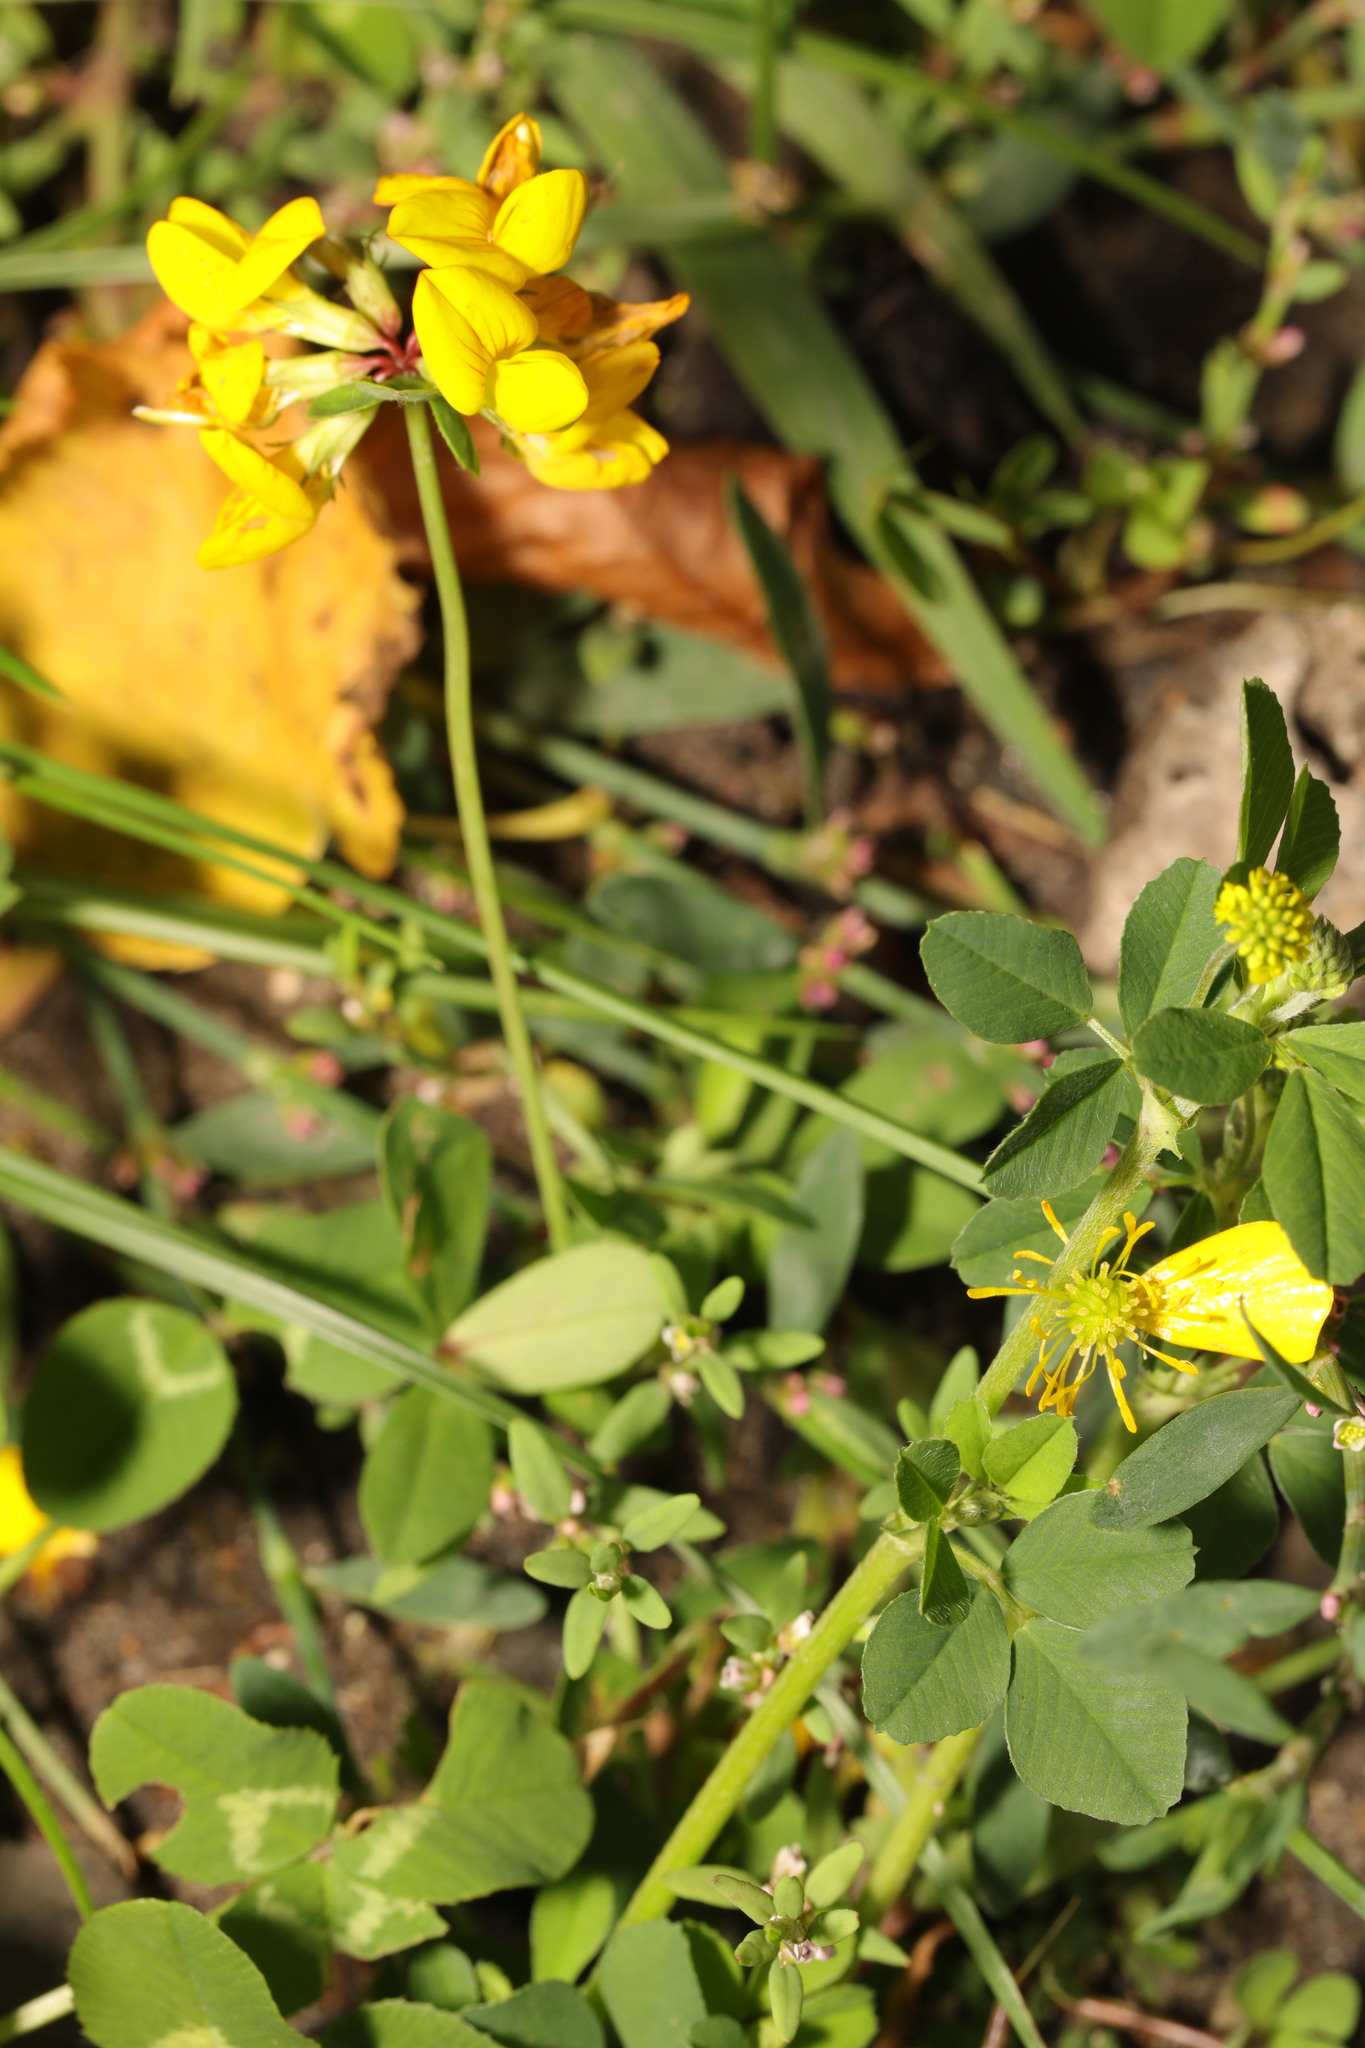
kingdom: Plantae
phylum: Tracheophyta
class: Magnoliopsida
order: Fabales
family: Fabaceae
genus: Lotus
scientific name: Lotus pedunculatus
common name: Greater birdsfoot-trefoil
